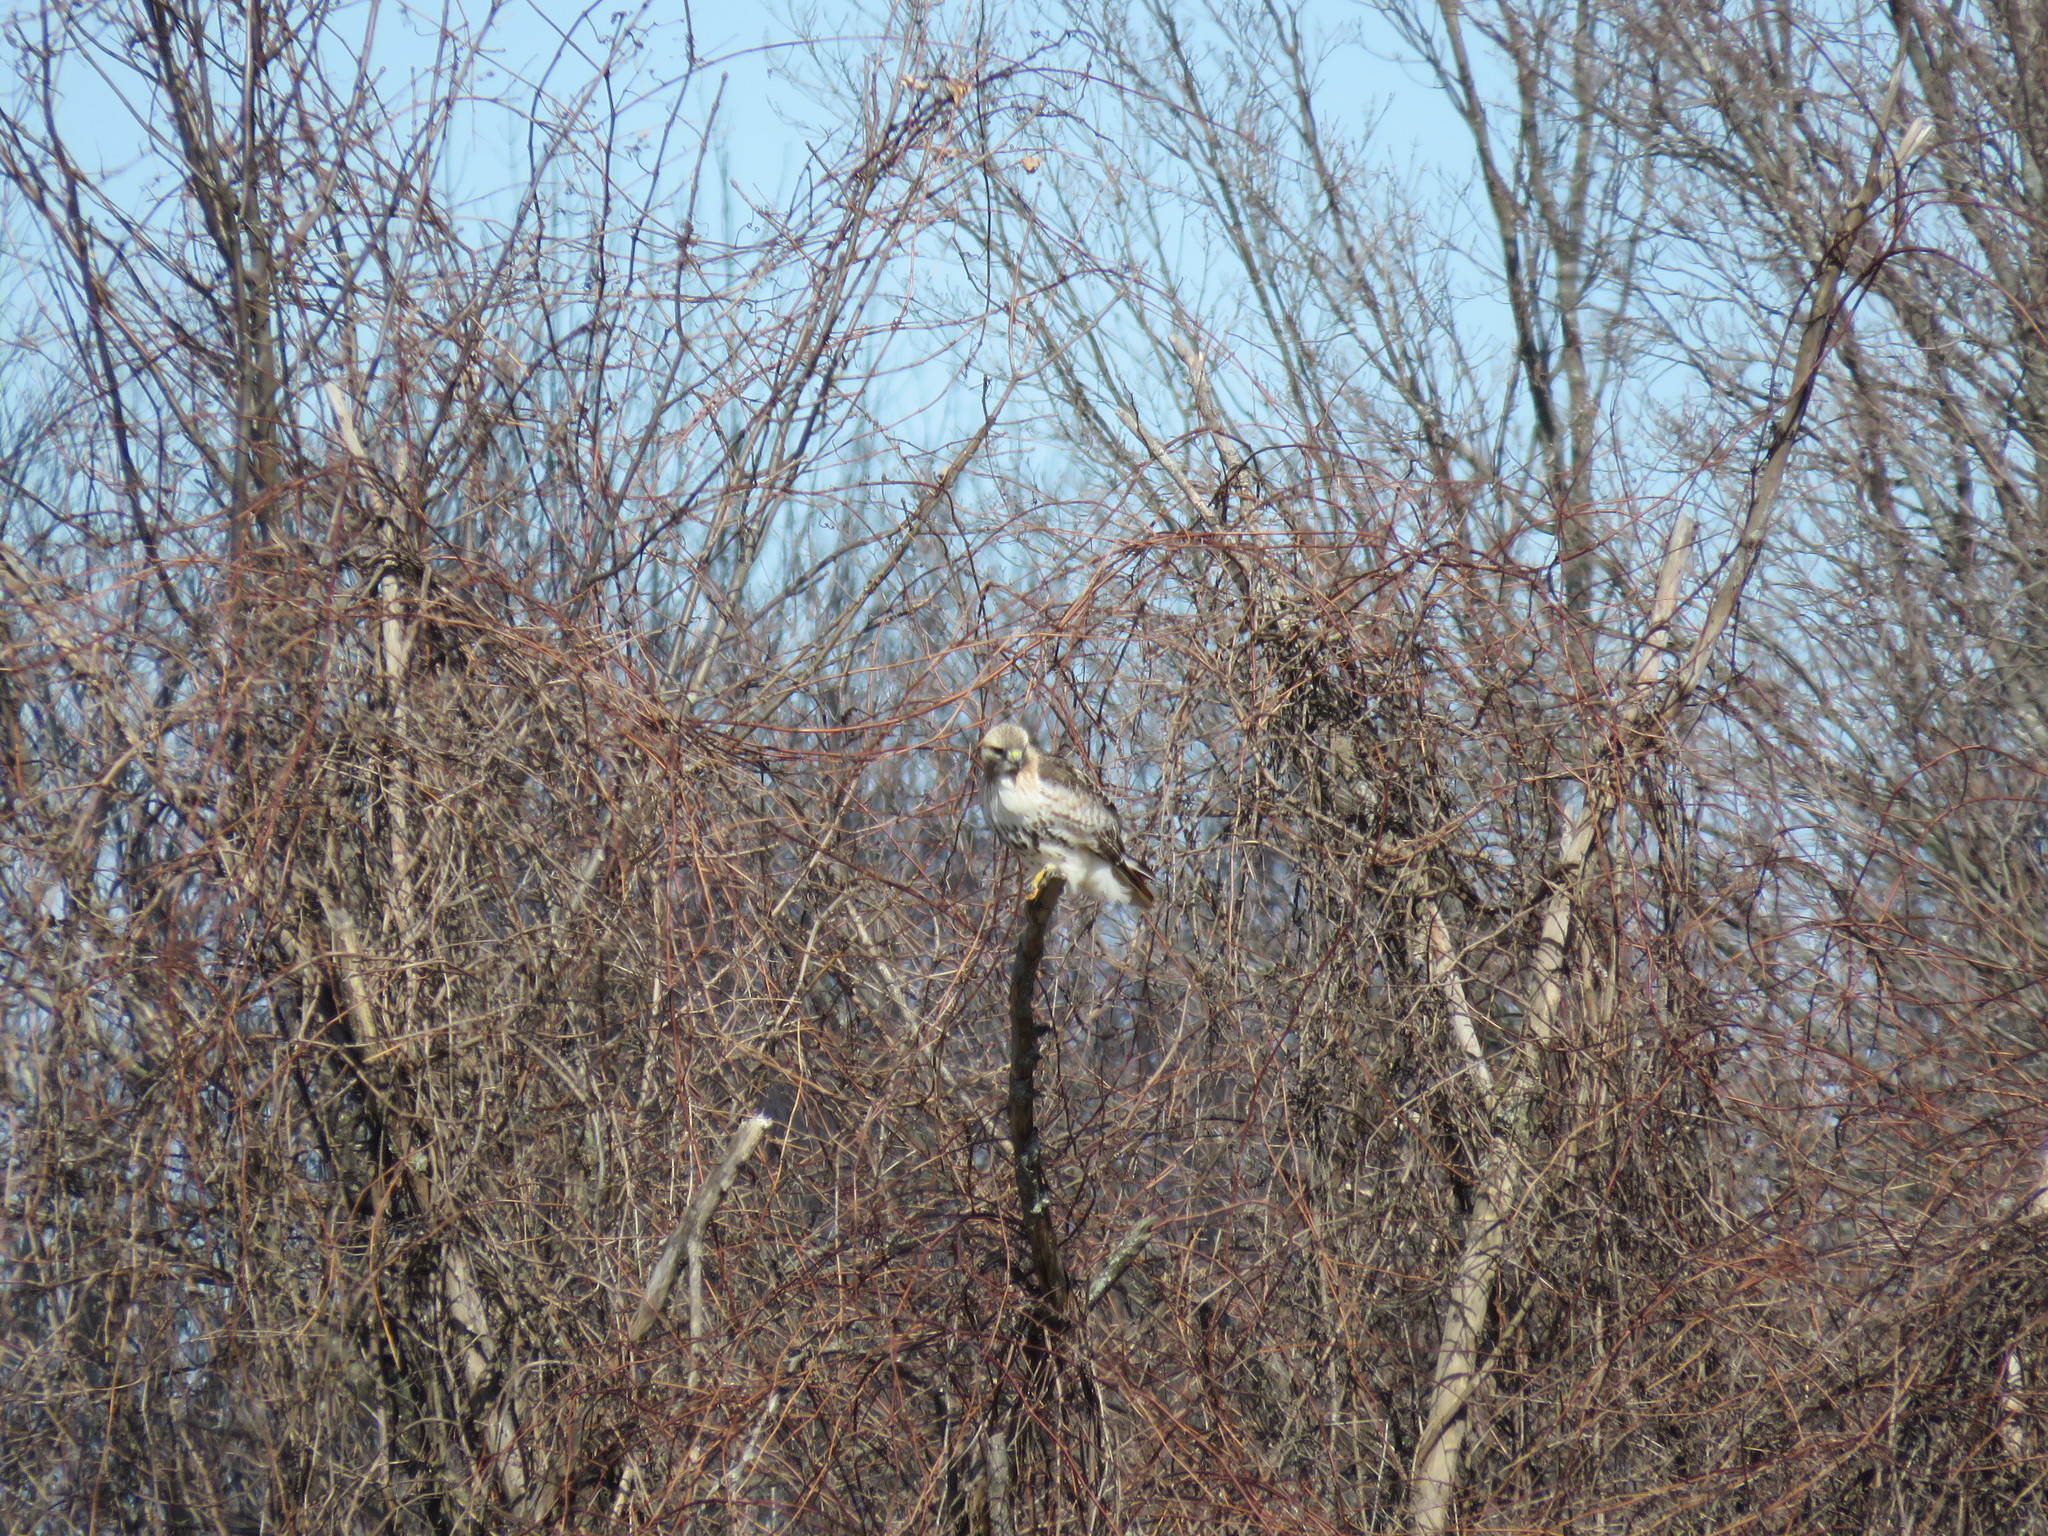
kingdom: Animalia
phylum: Chordata
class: Aves
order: Accipitriformes
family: Accipitridae
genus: Buteo
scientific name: Buteo jamaicensis
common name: Red-tailed hawk
